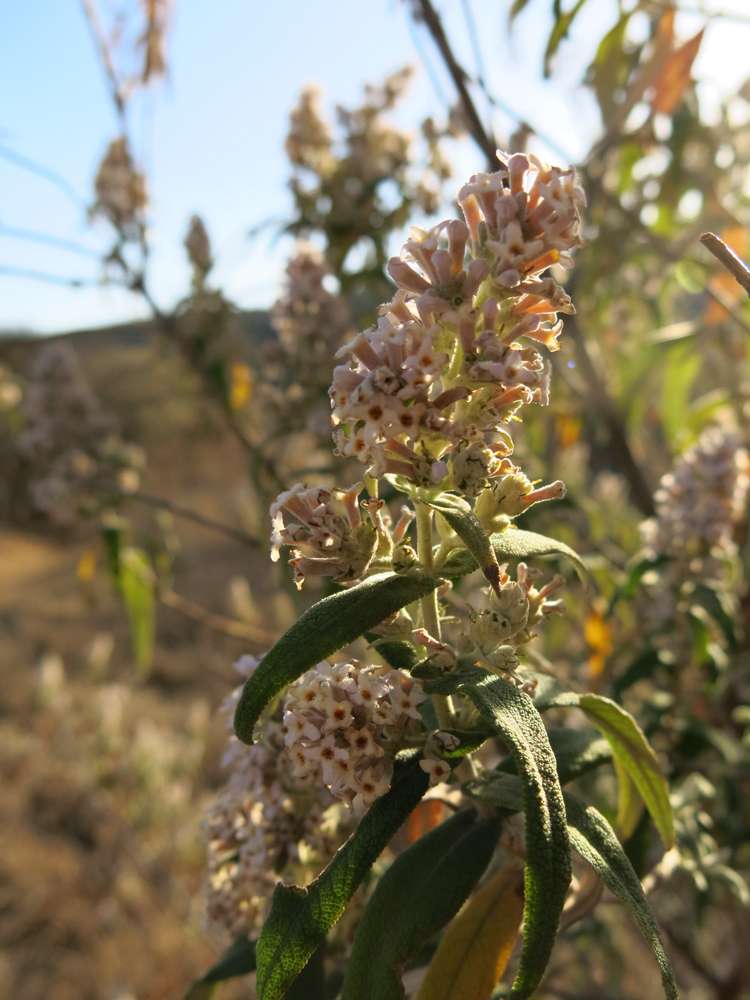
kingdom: Plantae
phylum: Tracheophyta
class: Magnoliopsida
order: Lamiales
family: Scrophulariaceae
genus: Buddleja
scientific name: Buddleja salviifolia
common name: Sagewood
